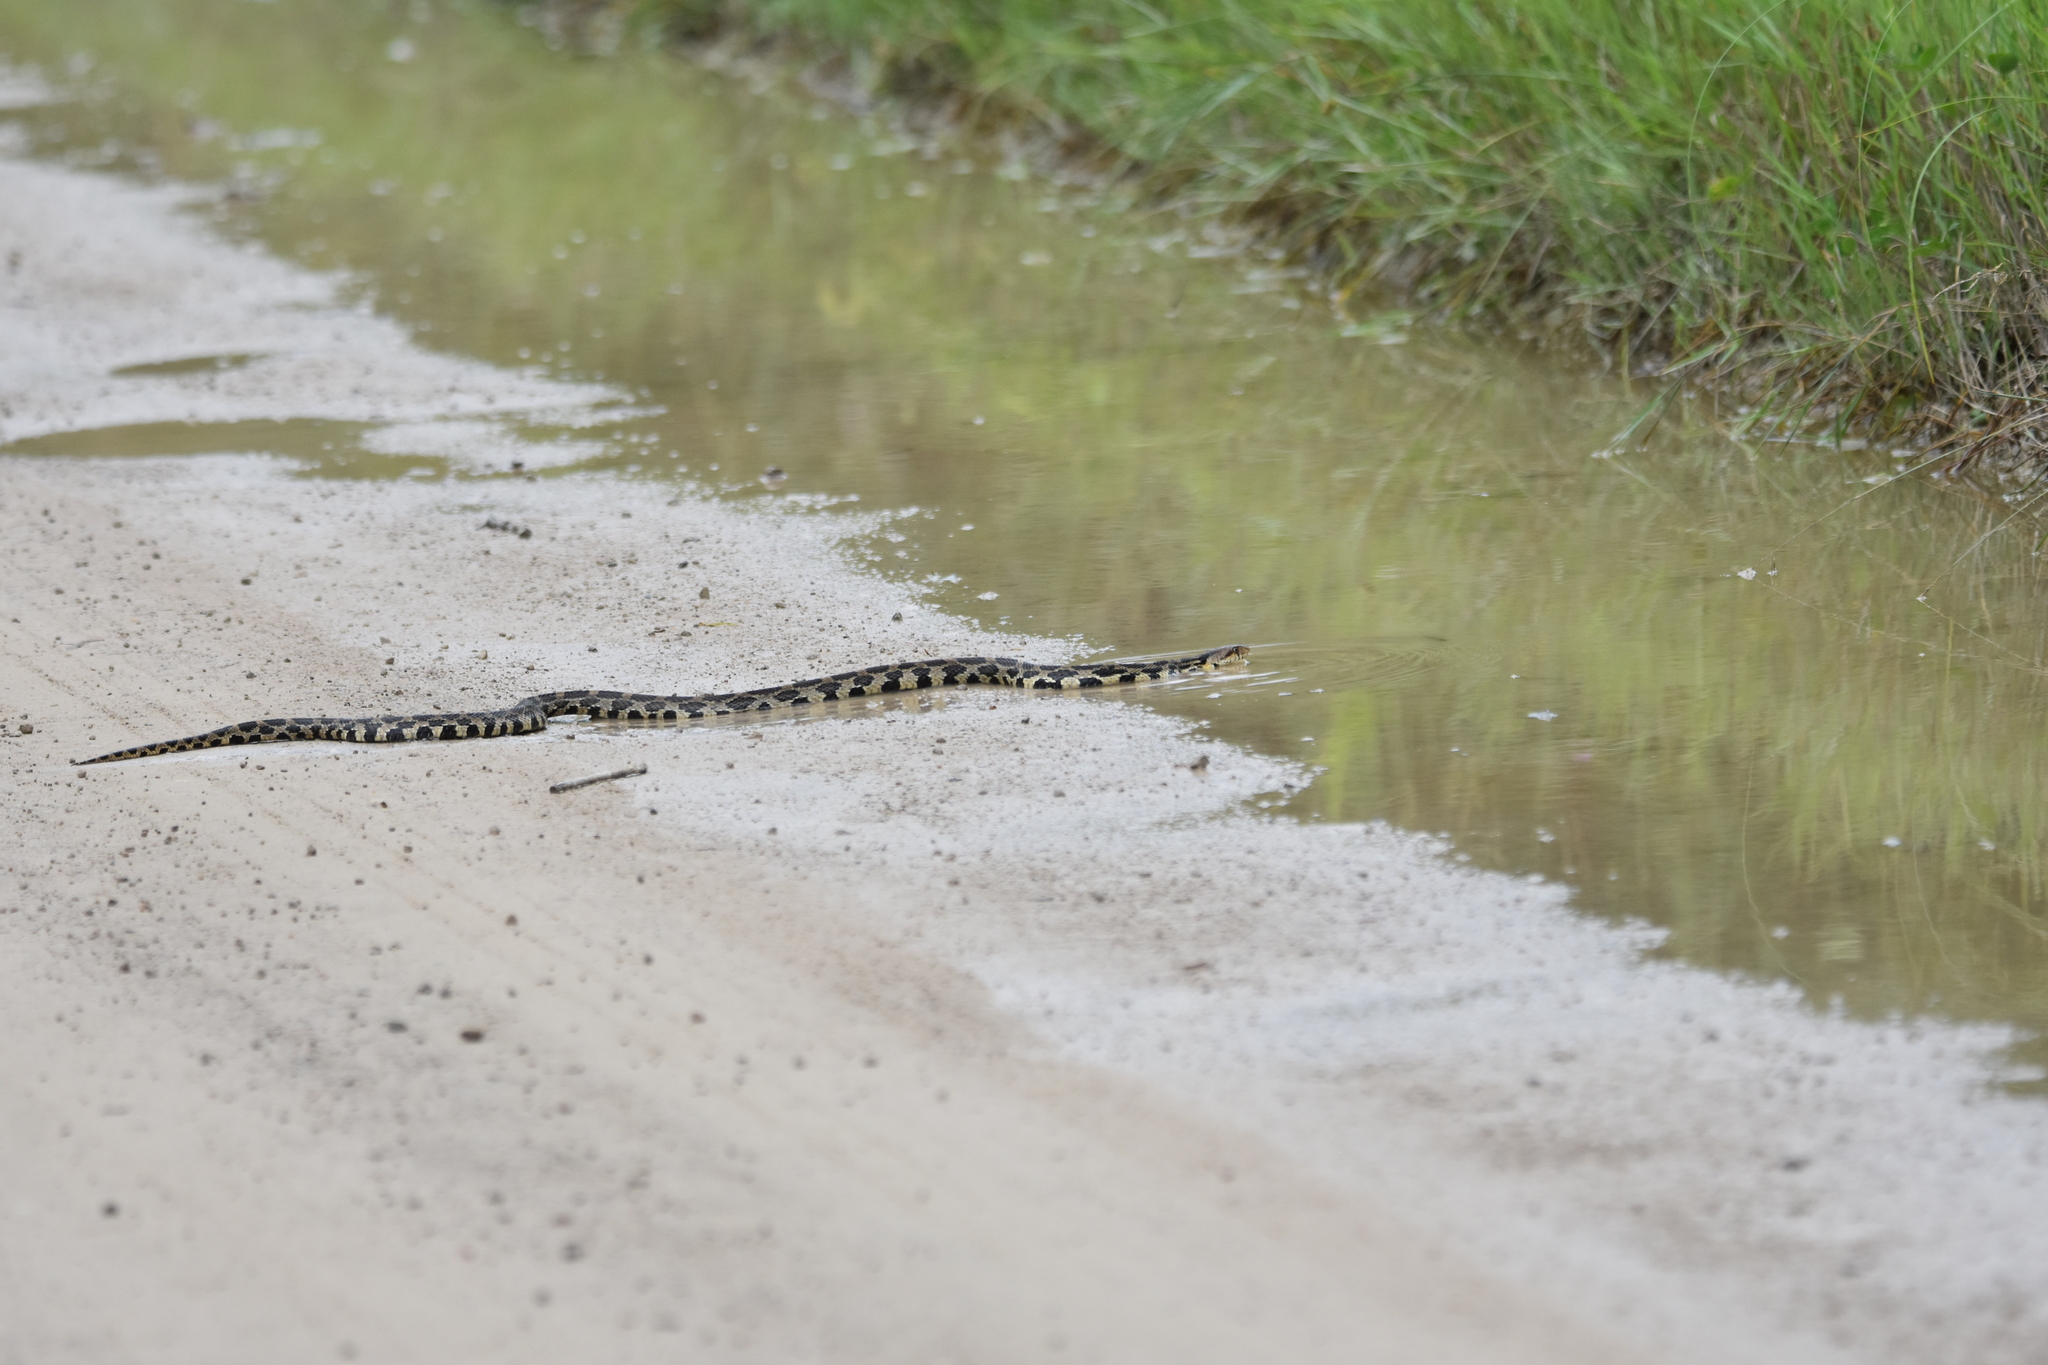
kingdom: Animalia
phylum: Chordata
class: Squamata
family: Colubridae
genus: Pantherophis
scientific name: Pantherophis vulpinus
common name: Eastern fox snake
